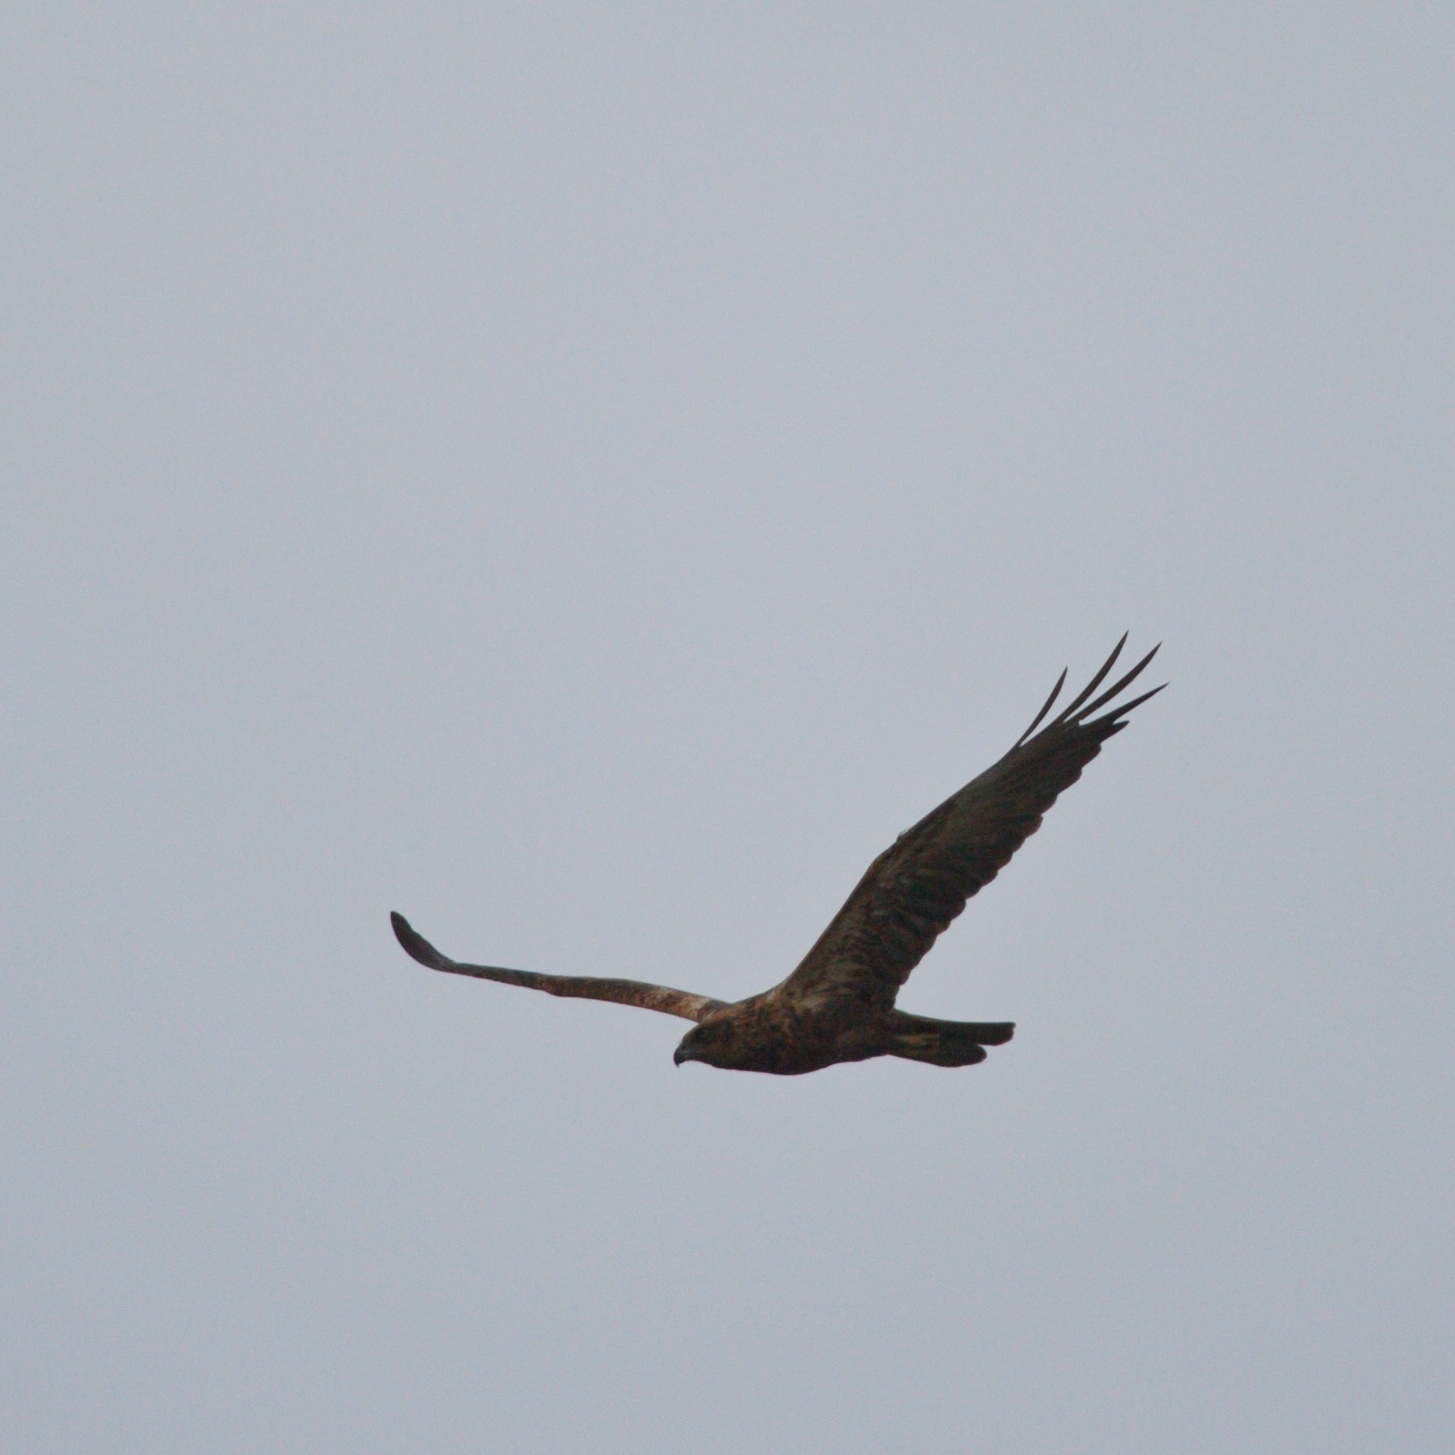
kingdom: Animalia
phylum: Chordata
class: Aves
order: Accipitriformes
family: Accipitridae
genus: Circus
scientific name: Circus aeruginosus
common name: Western marsh harrier
